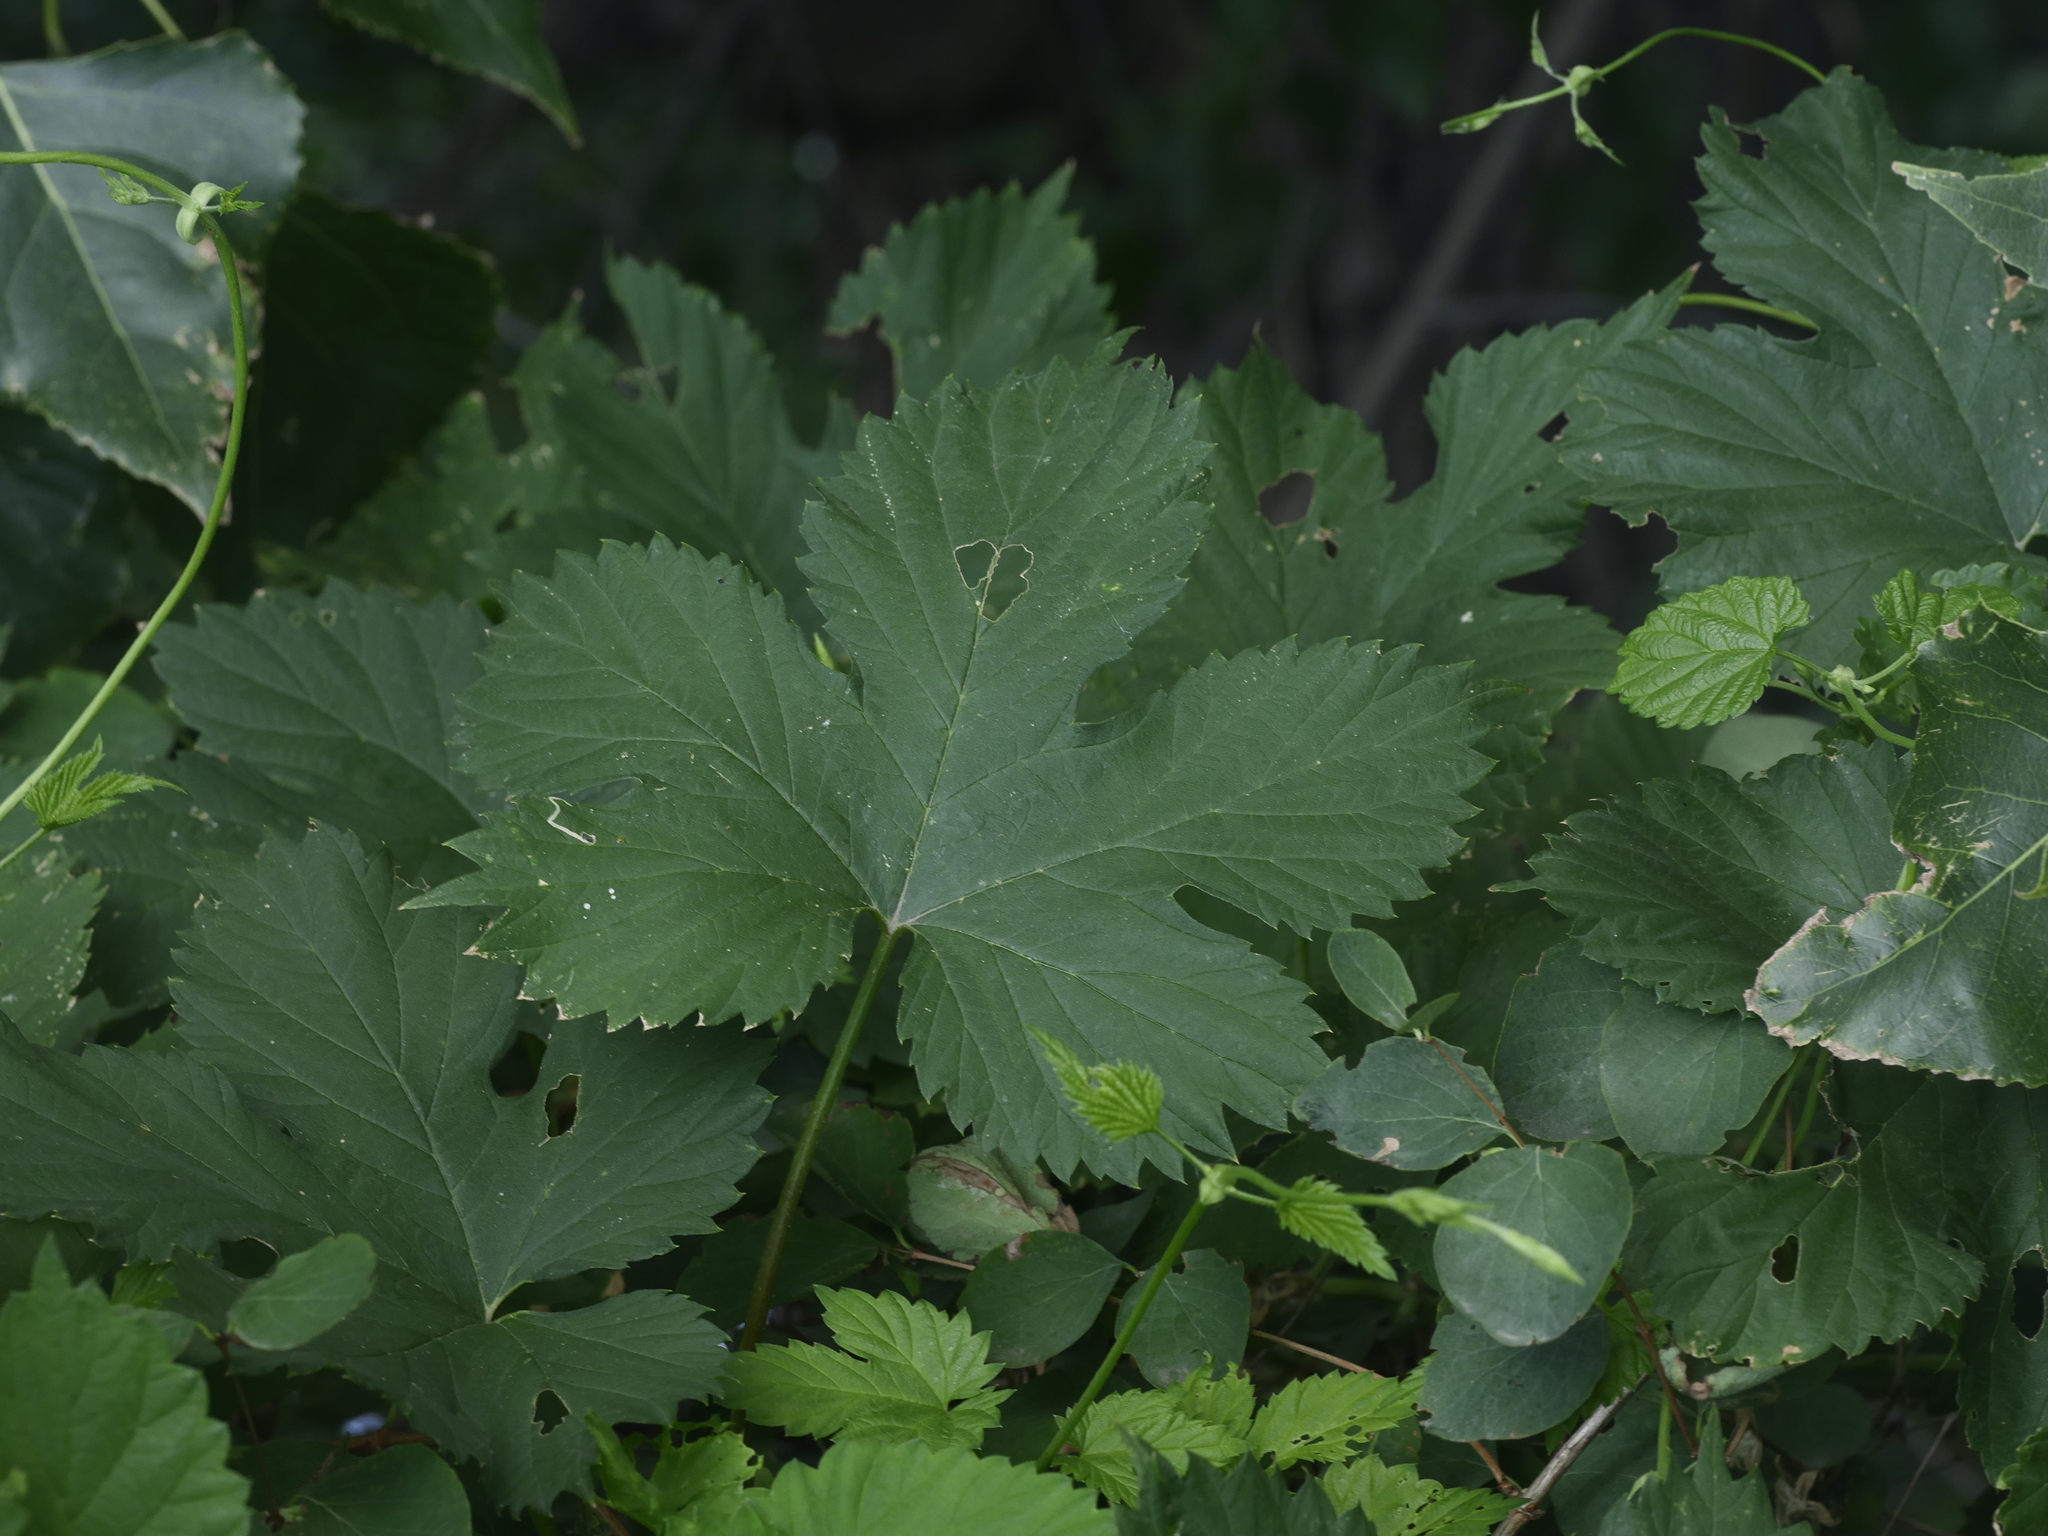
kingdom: Plantae
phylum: Tracheophyta
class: Magnoliopsida
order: Rosales
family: Cannabaceae
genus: Humulus
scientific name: Humulus lupulus
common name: Hop
